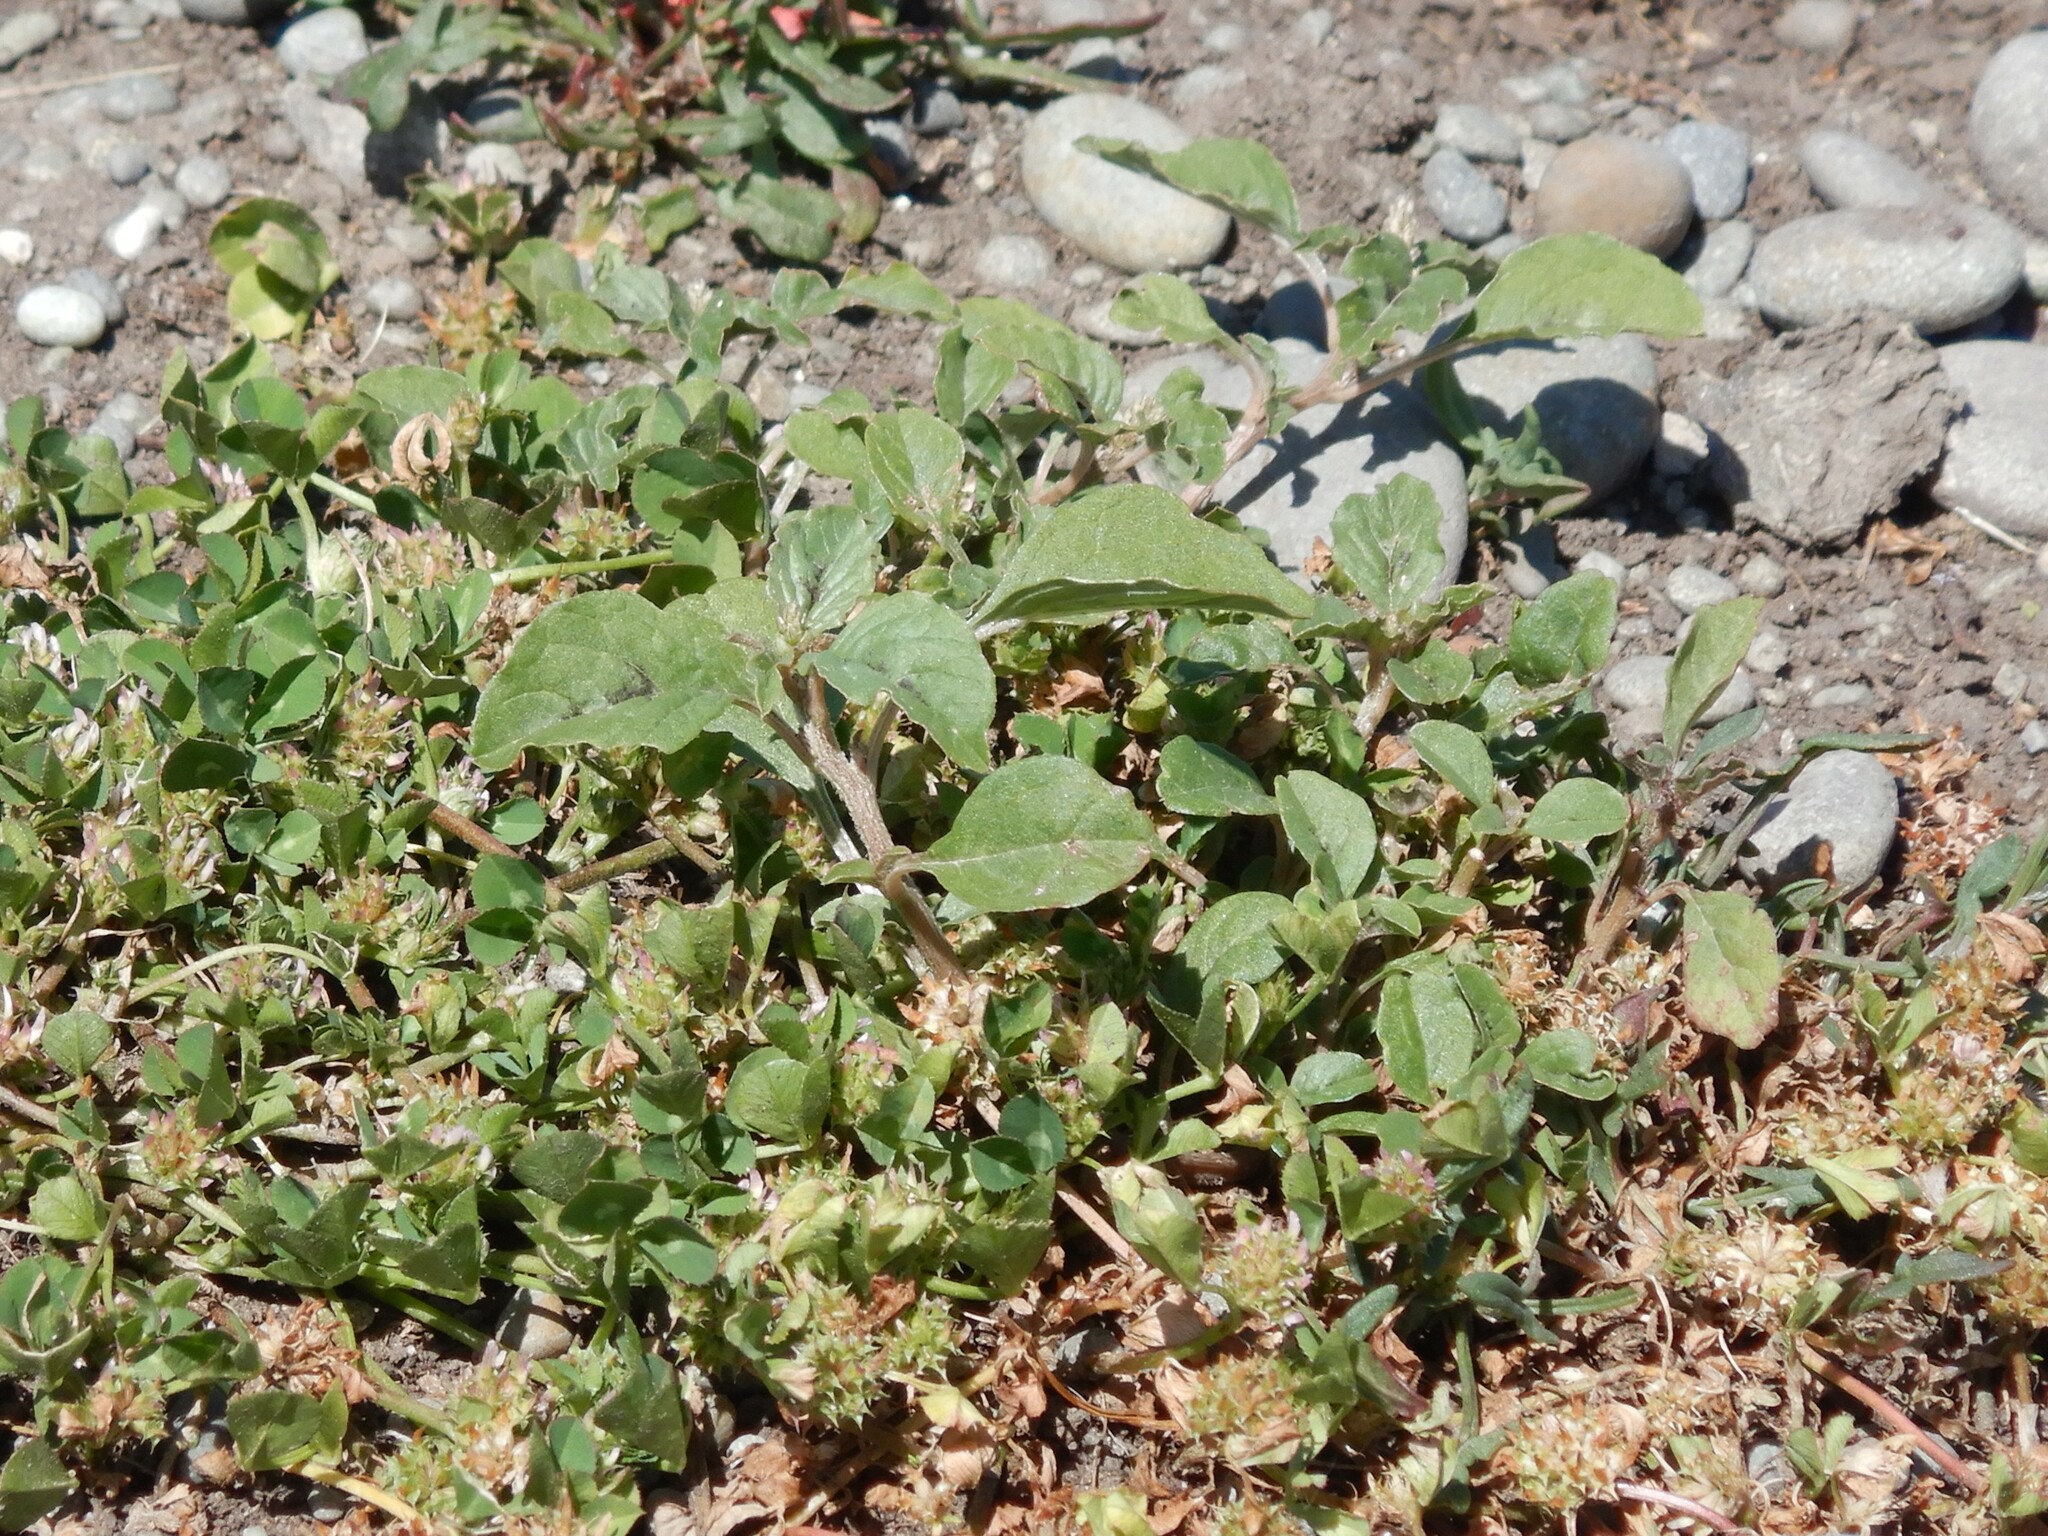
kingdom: Plantae
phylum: Tracheophyta
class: Magnoliopsida
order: Caryophyllales
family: Amaranthaceae
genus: Amaranthus
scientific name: Amaranthus deflexus
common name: Perennial pigweed
